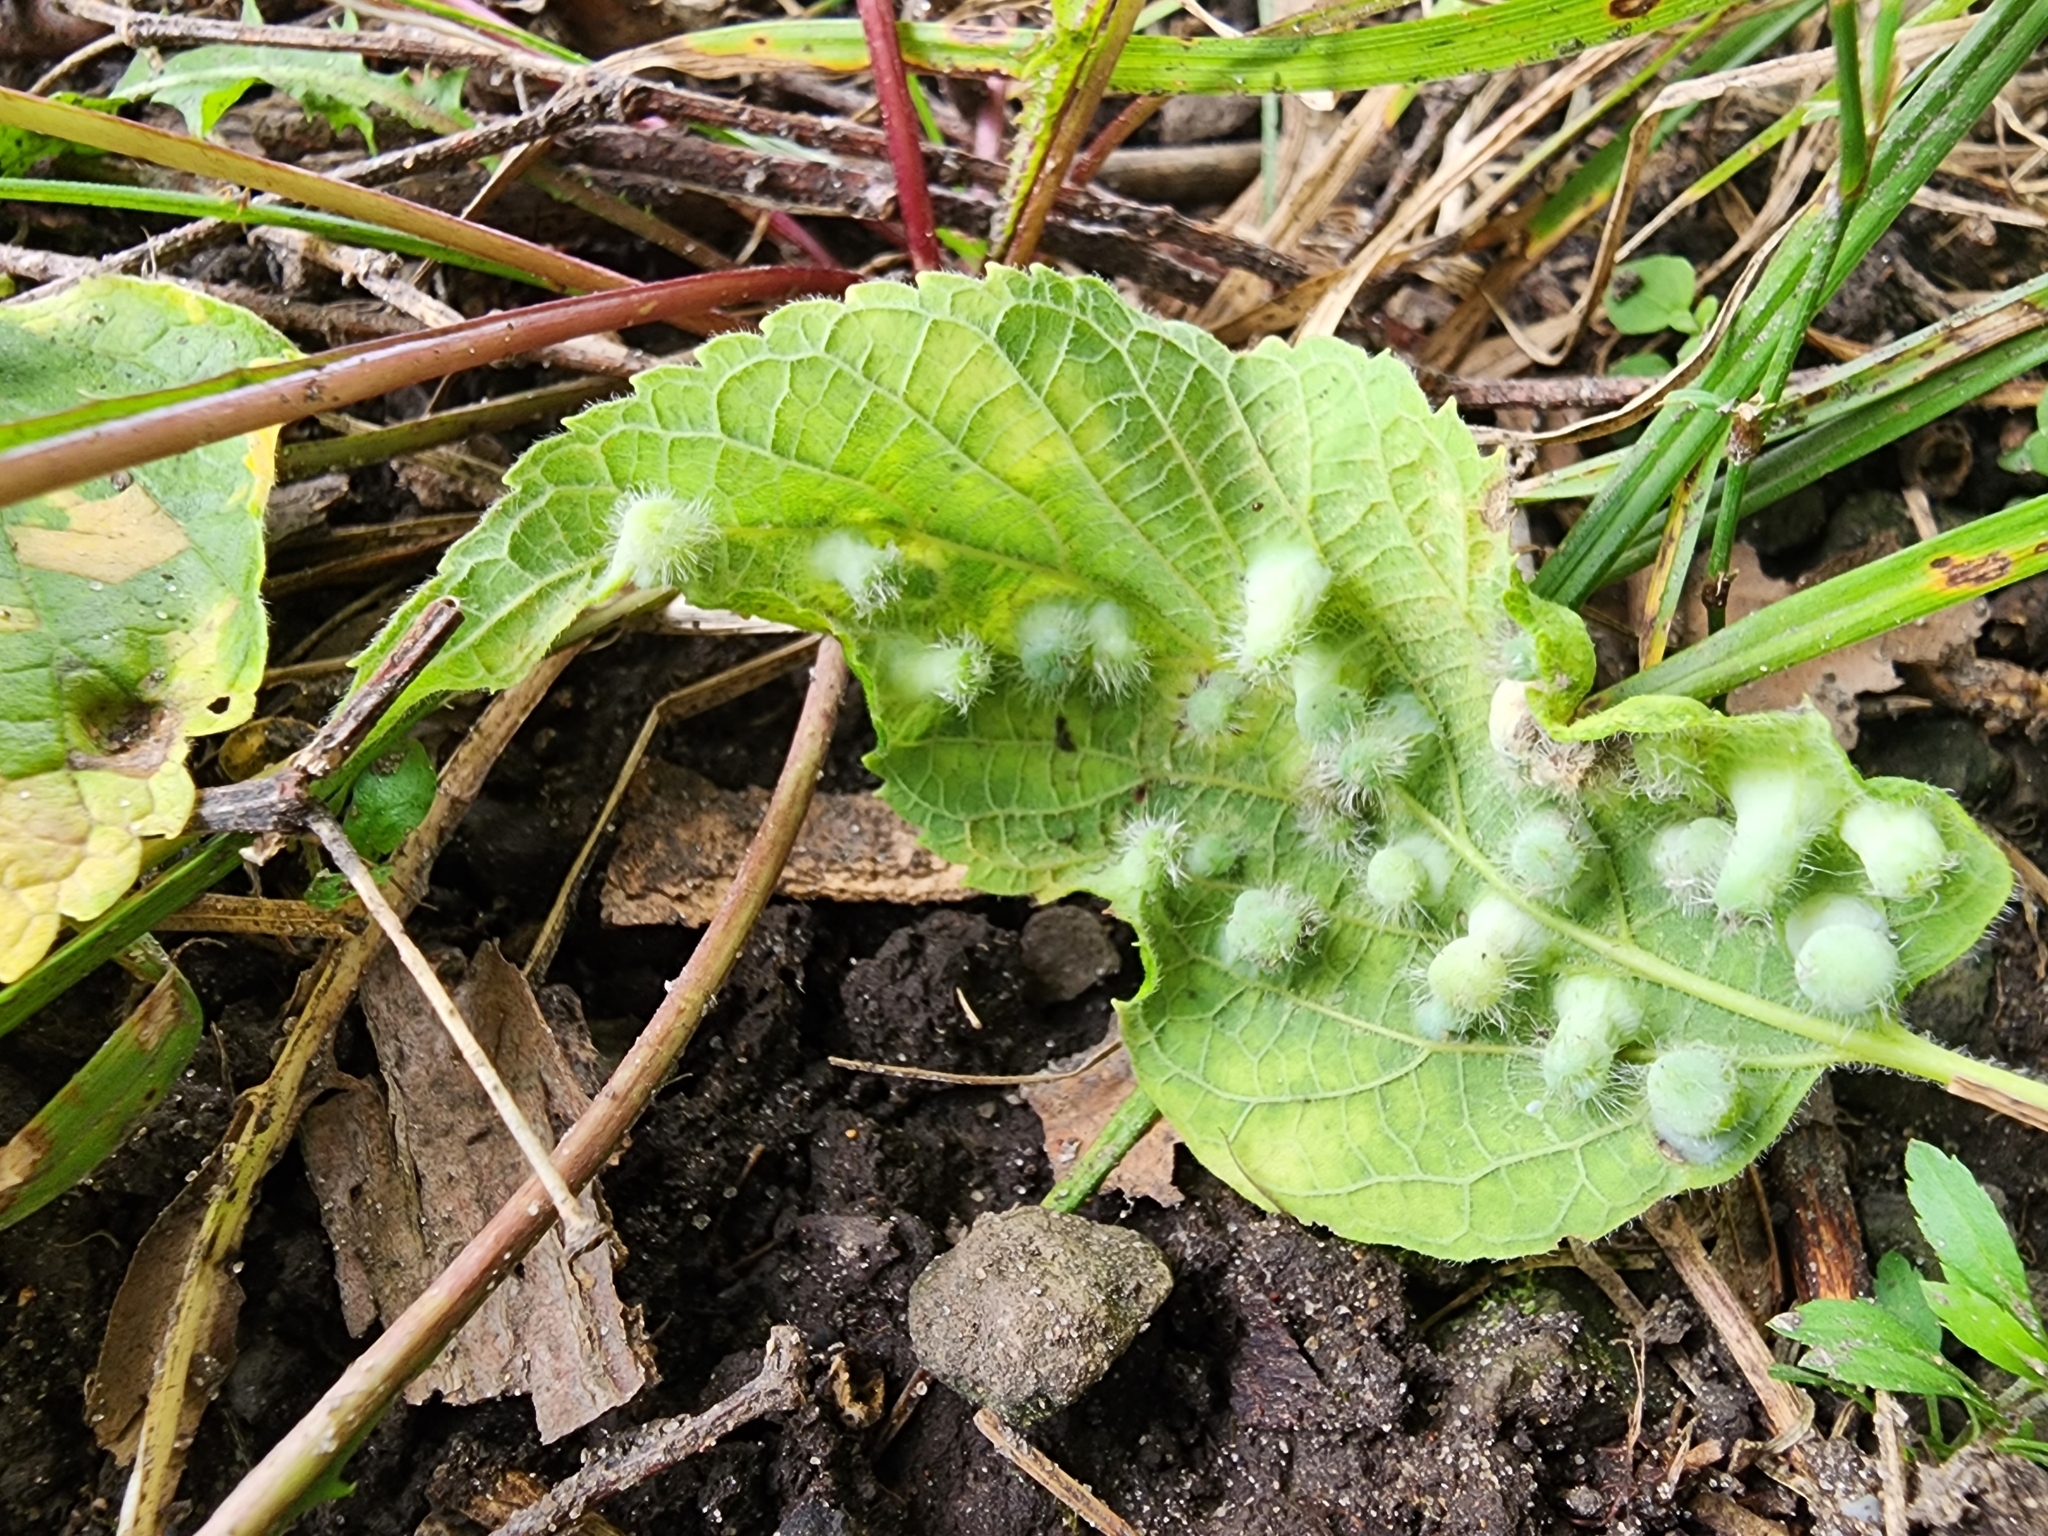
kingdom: Animalia
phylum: Arthropoda
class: Insecta
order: Hemiptera
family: Aphalaridae
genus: Pachypsylla
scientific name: Pachypsylla celtidismamma
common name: Hackberry nipplegall psyllid
